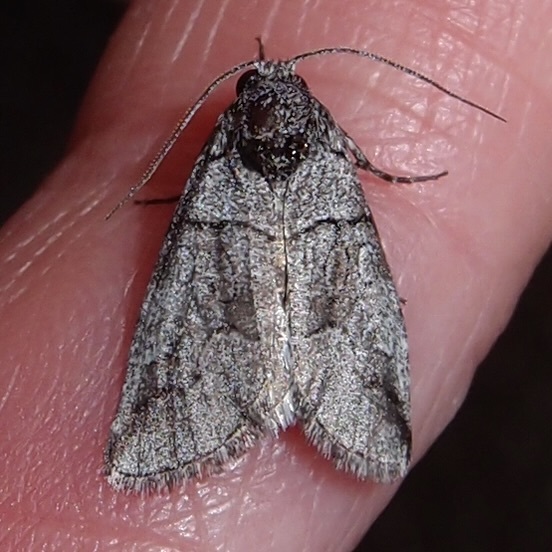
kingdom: Animalia
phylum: Arthropoda
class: Insecta
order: Lepidoptera
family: Noctuidae
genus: Oxycnemis
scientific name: Oxycnemis advena
